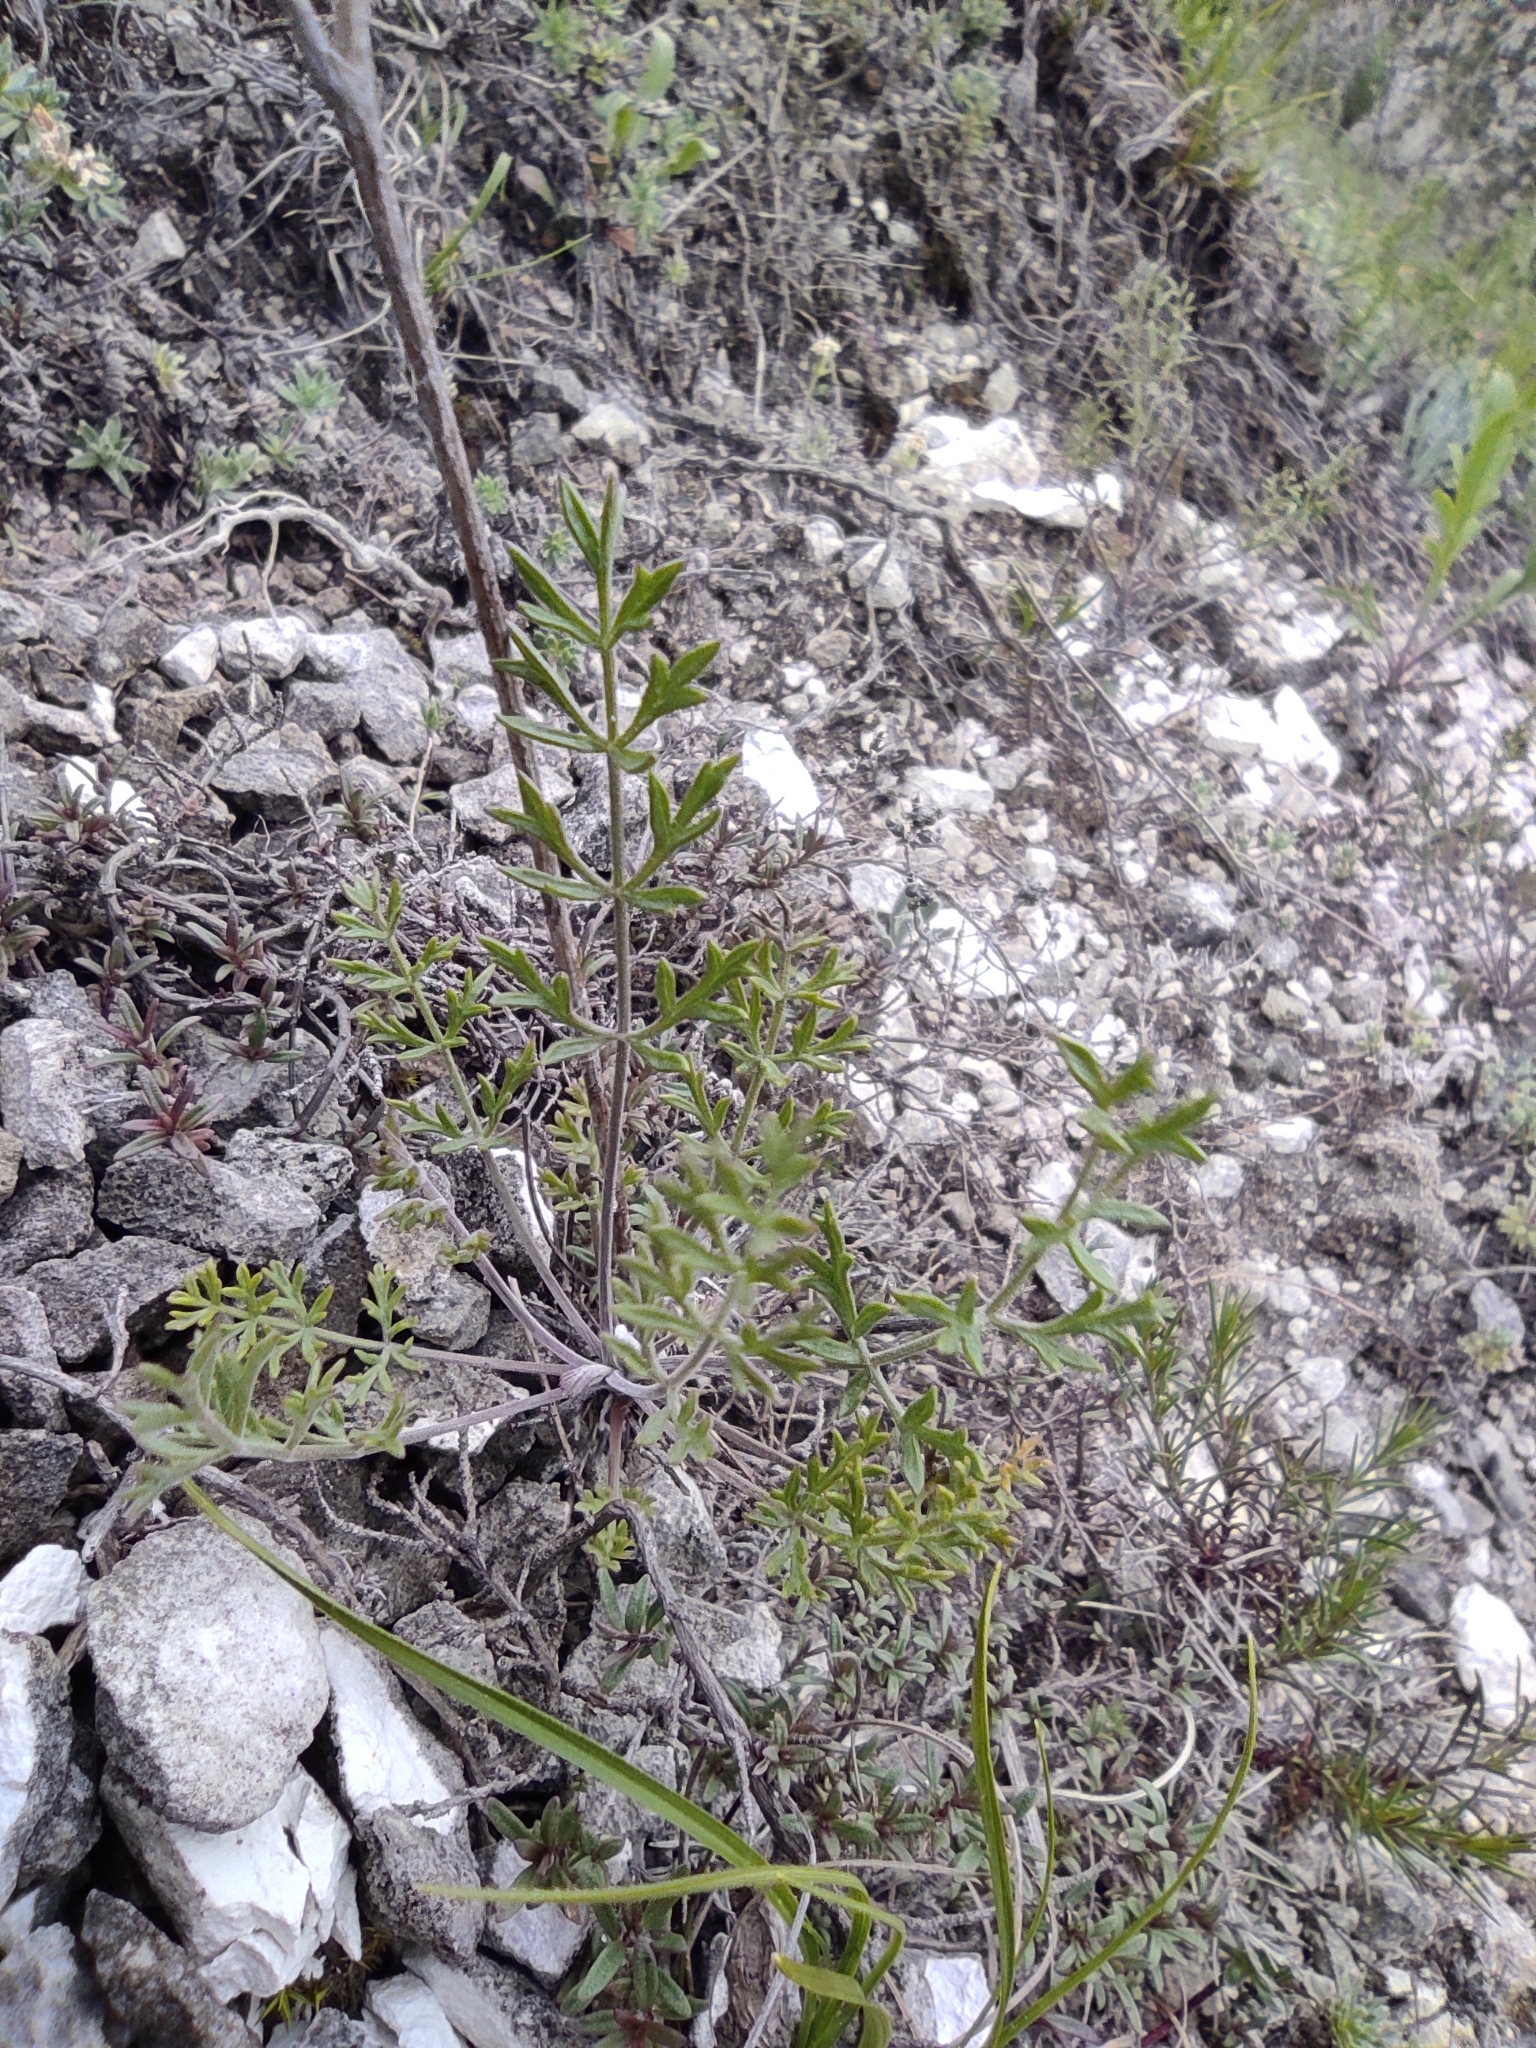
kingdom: Plantae
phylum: Tracheophyta
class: Magnoliopsida
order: Apiales
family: Apiaceae
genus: Pimpinella
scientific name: Pimpinella tragium
